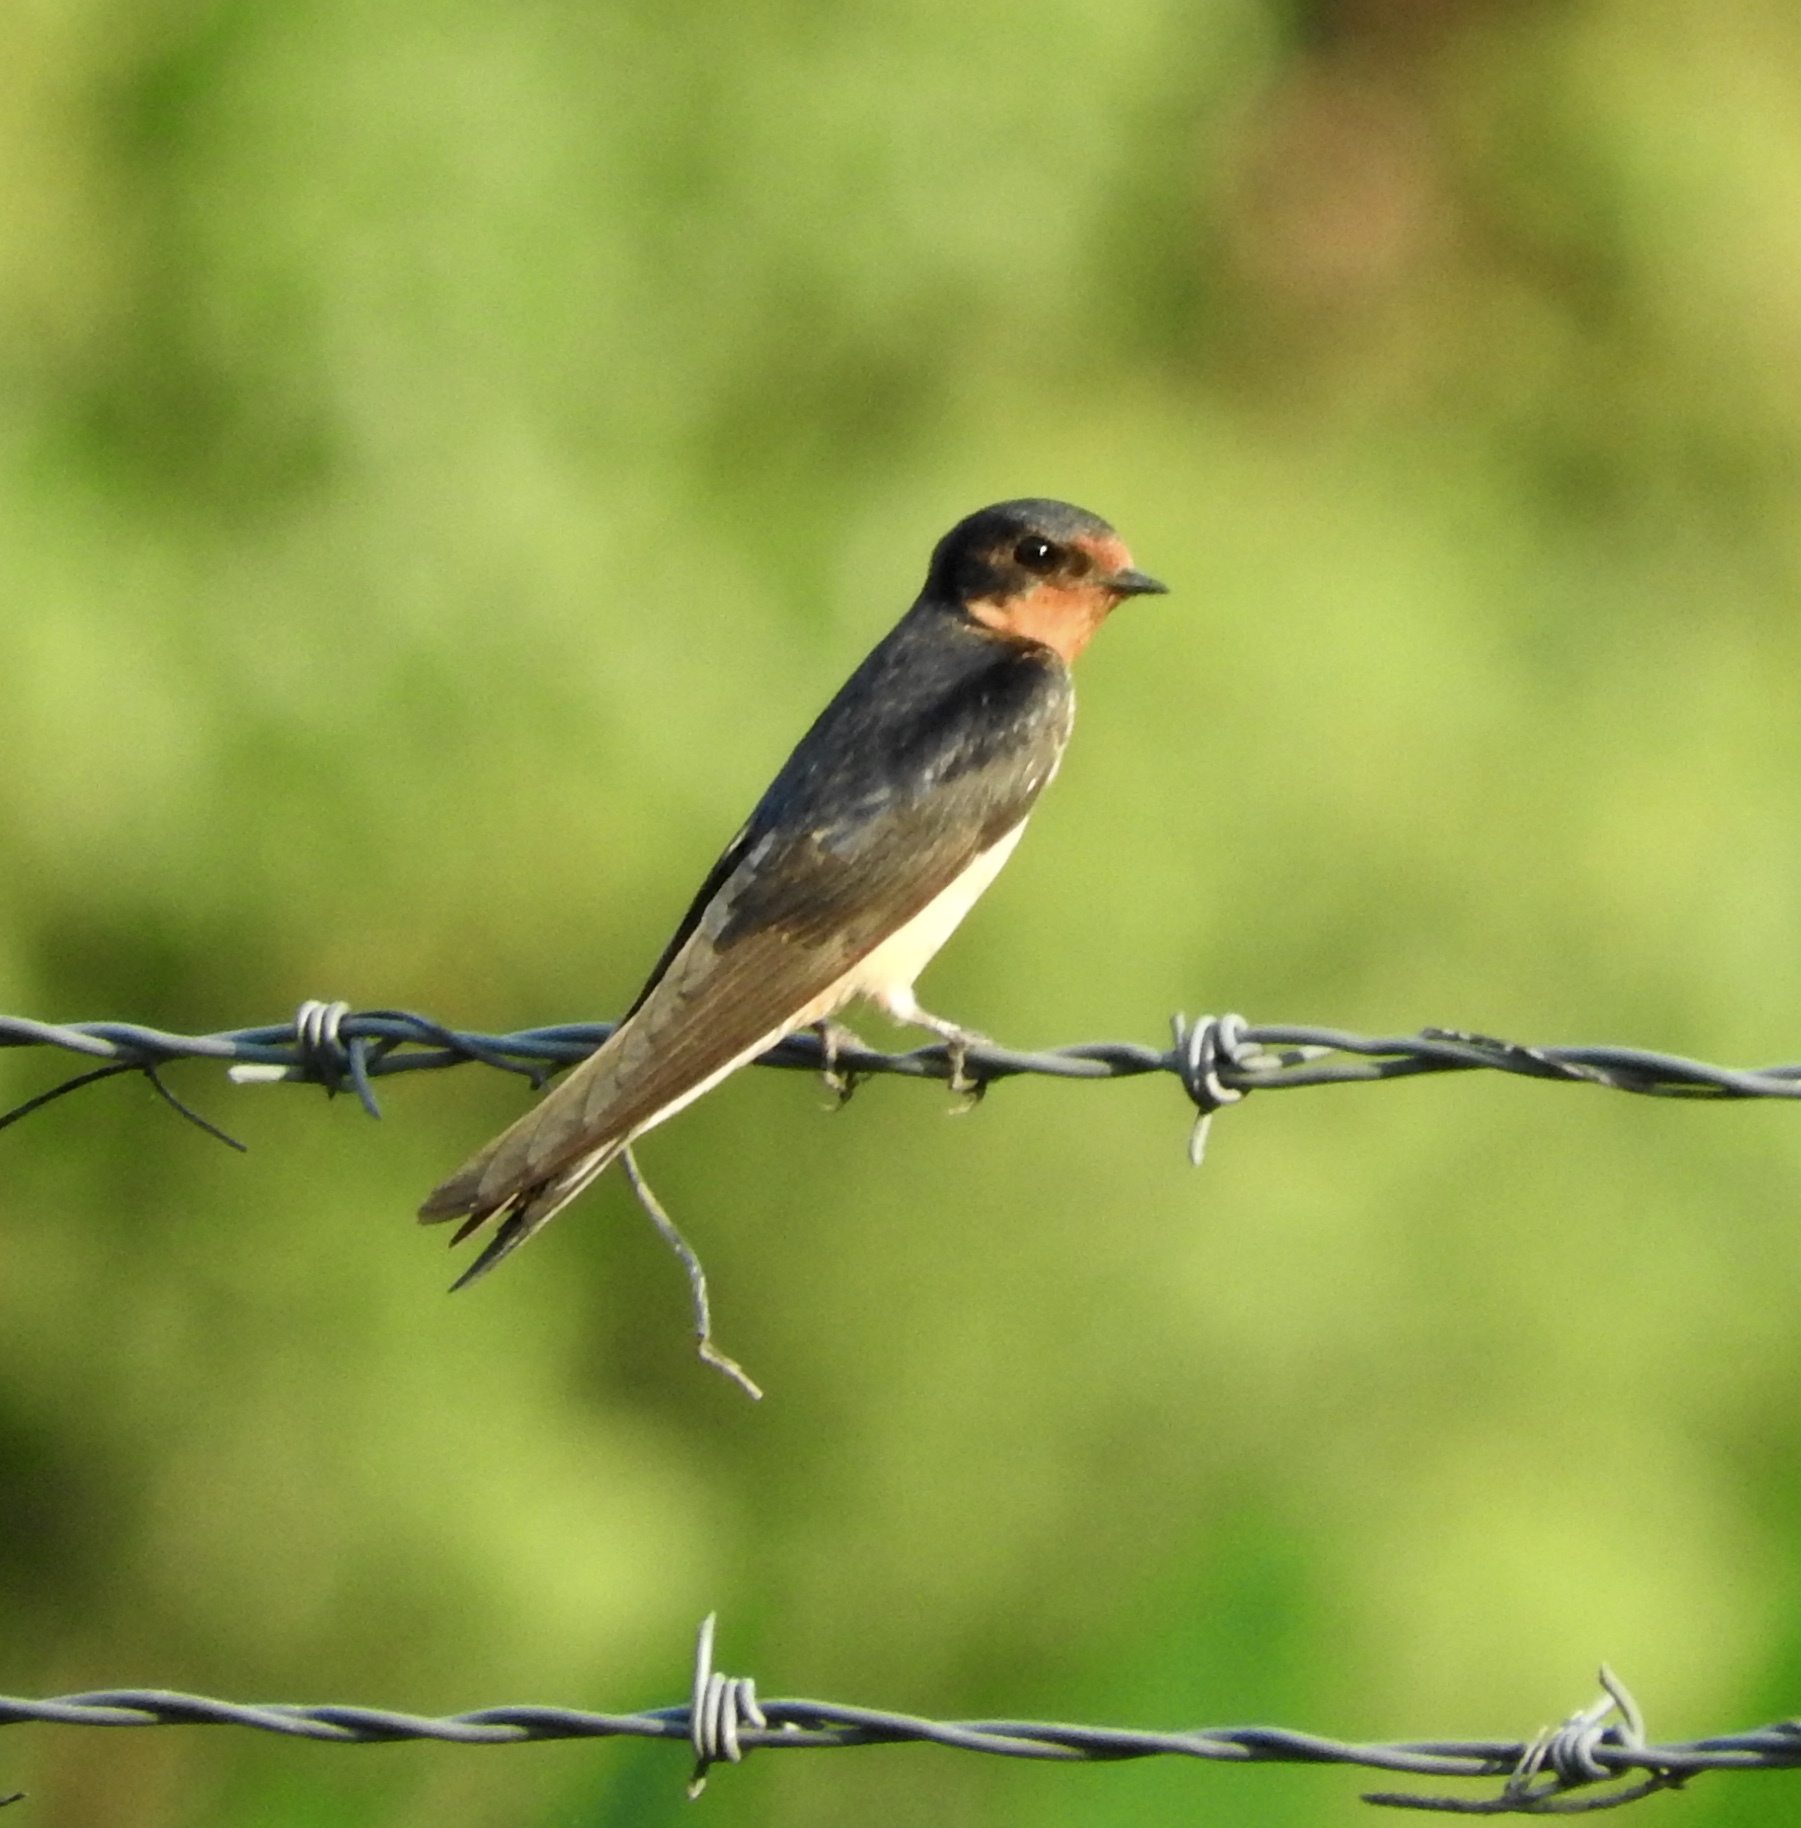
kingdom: Animalia
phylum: Chordata
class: Aves
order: Passeriformes
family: Hirundinidae
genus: Hirundo
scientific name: Hirundo rustica
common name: Barn swallow
